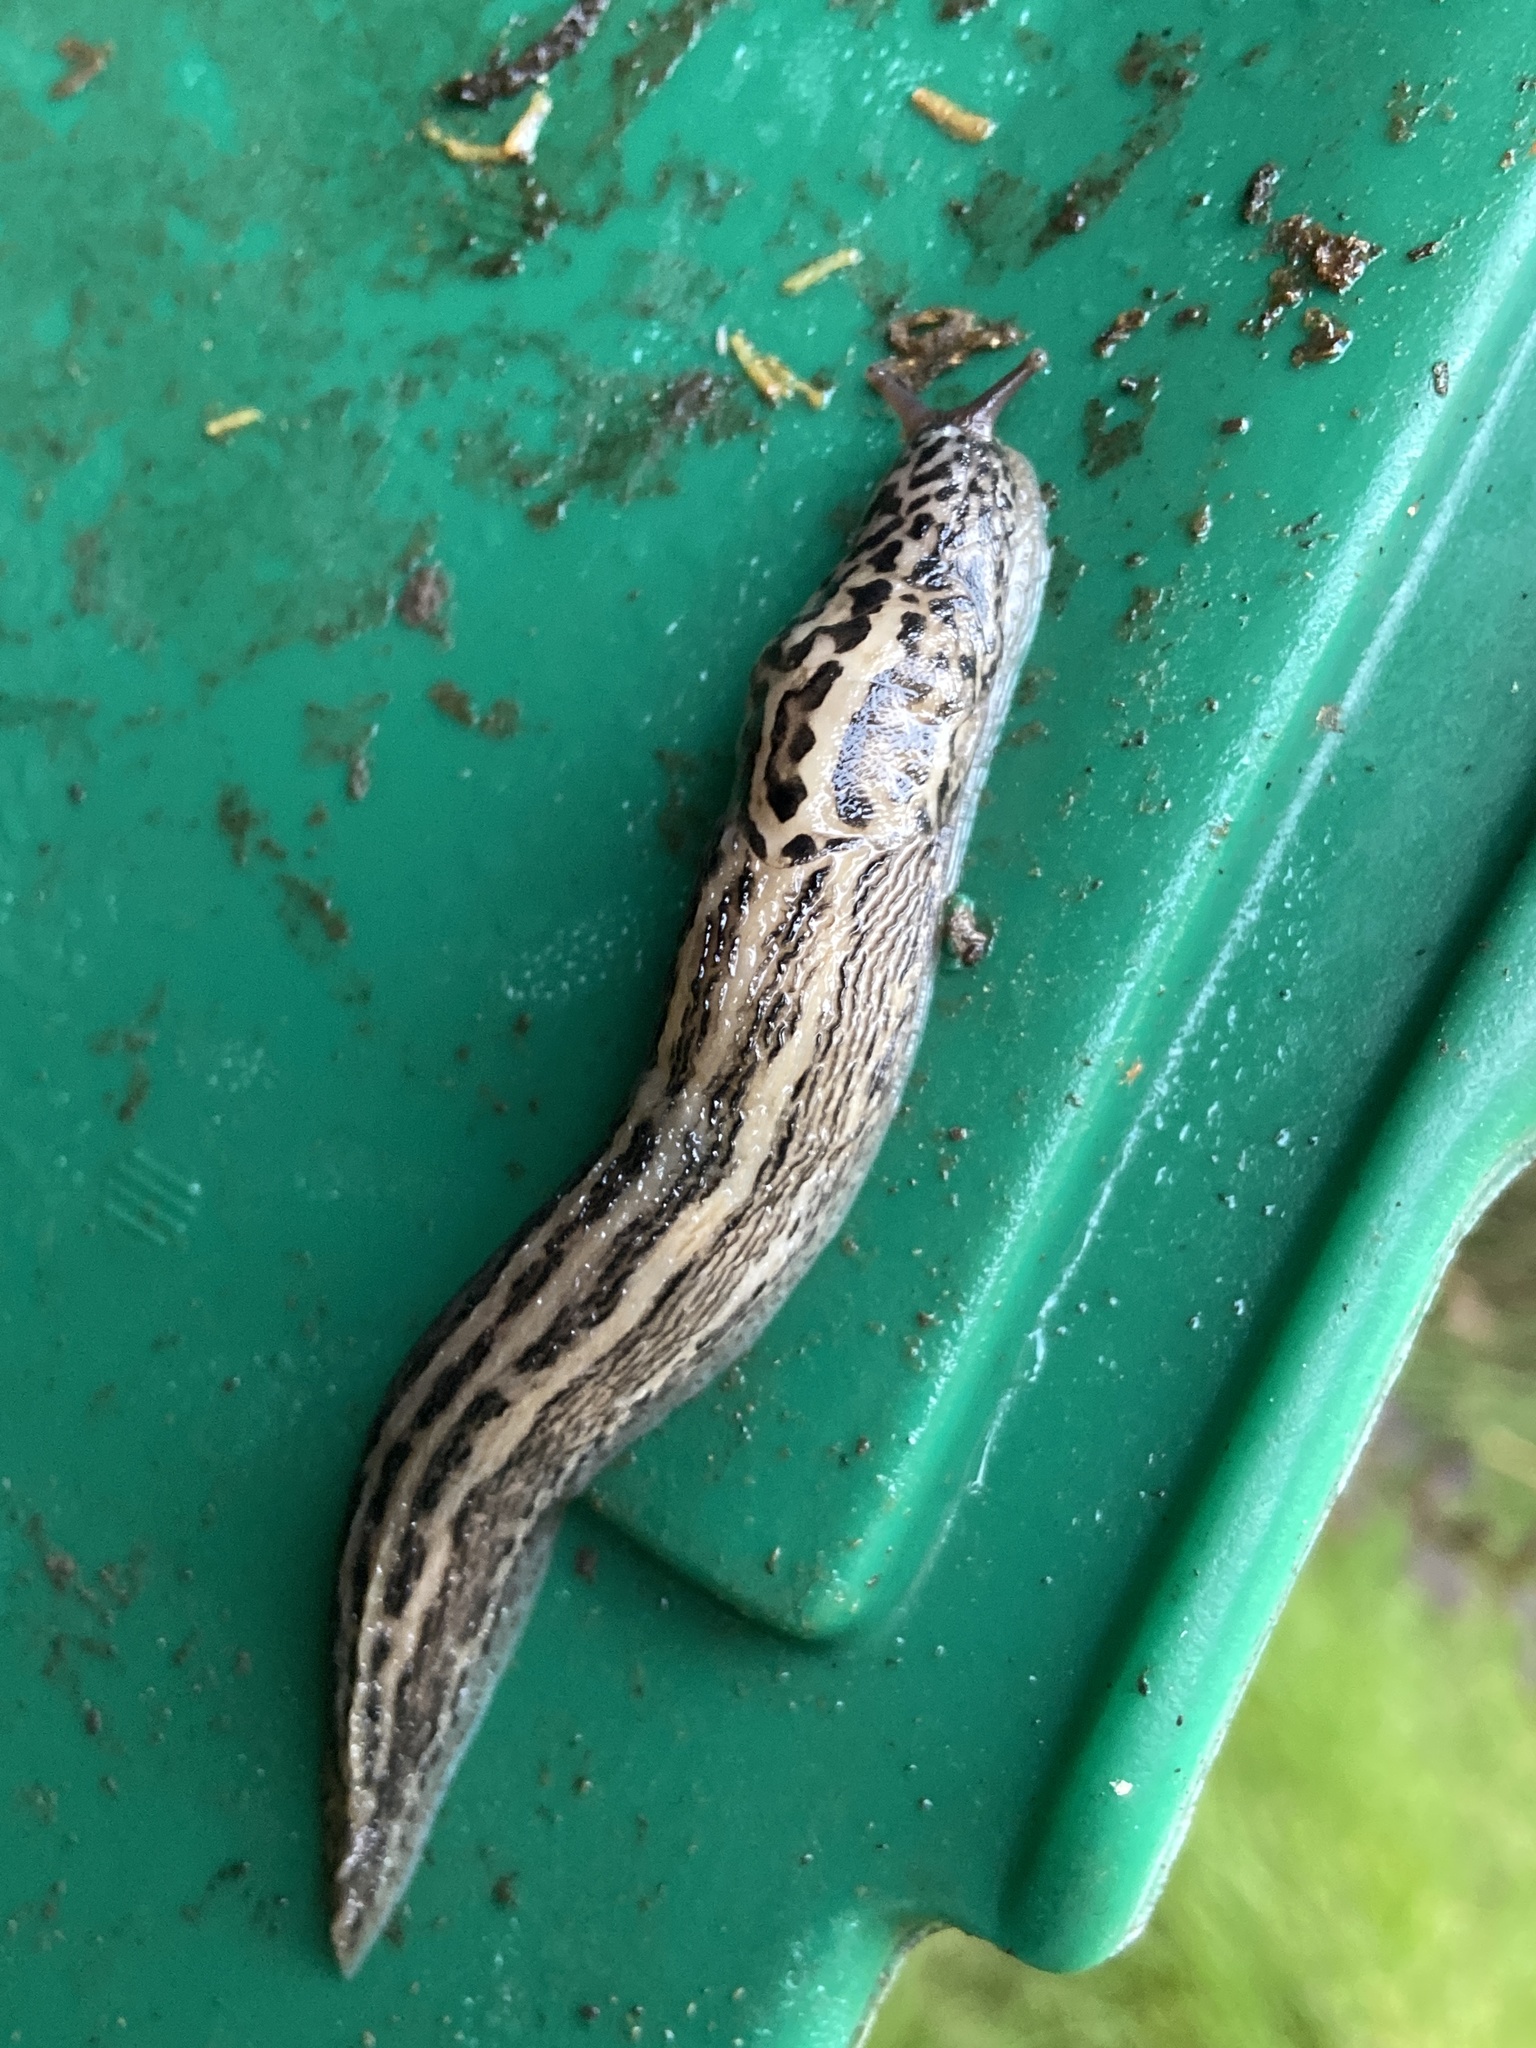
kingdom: Animalia
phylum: Mollusca
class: Gastropoda
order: Stylommatophora
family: Limacidae
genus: Limax
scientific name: Limax maximus
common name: Great grey slug
